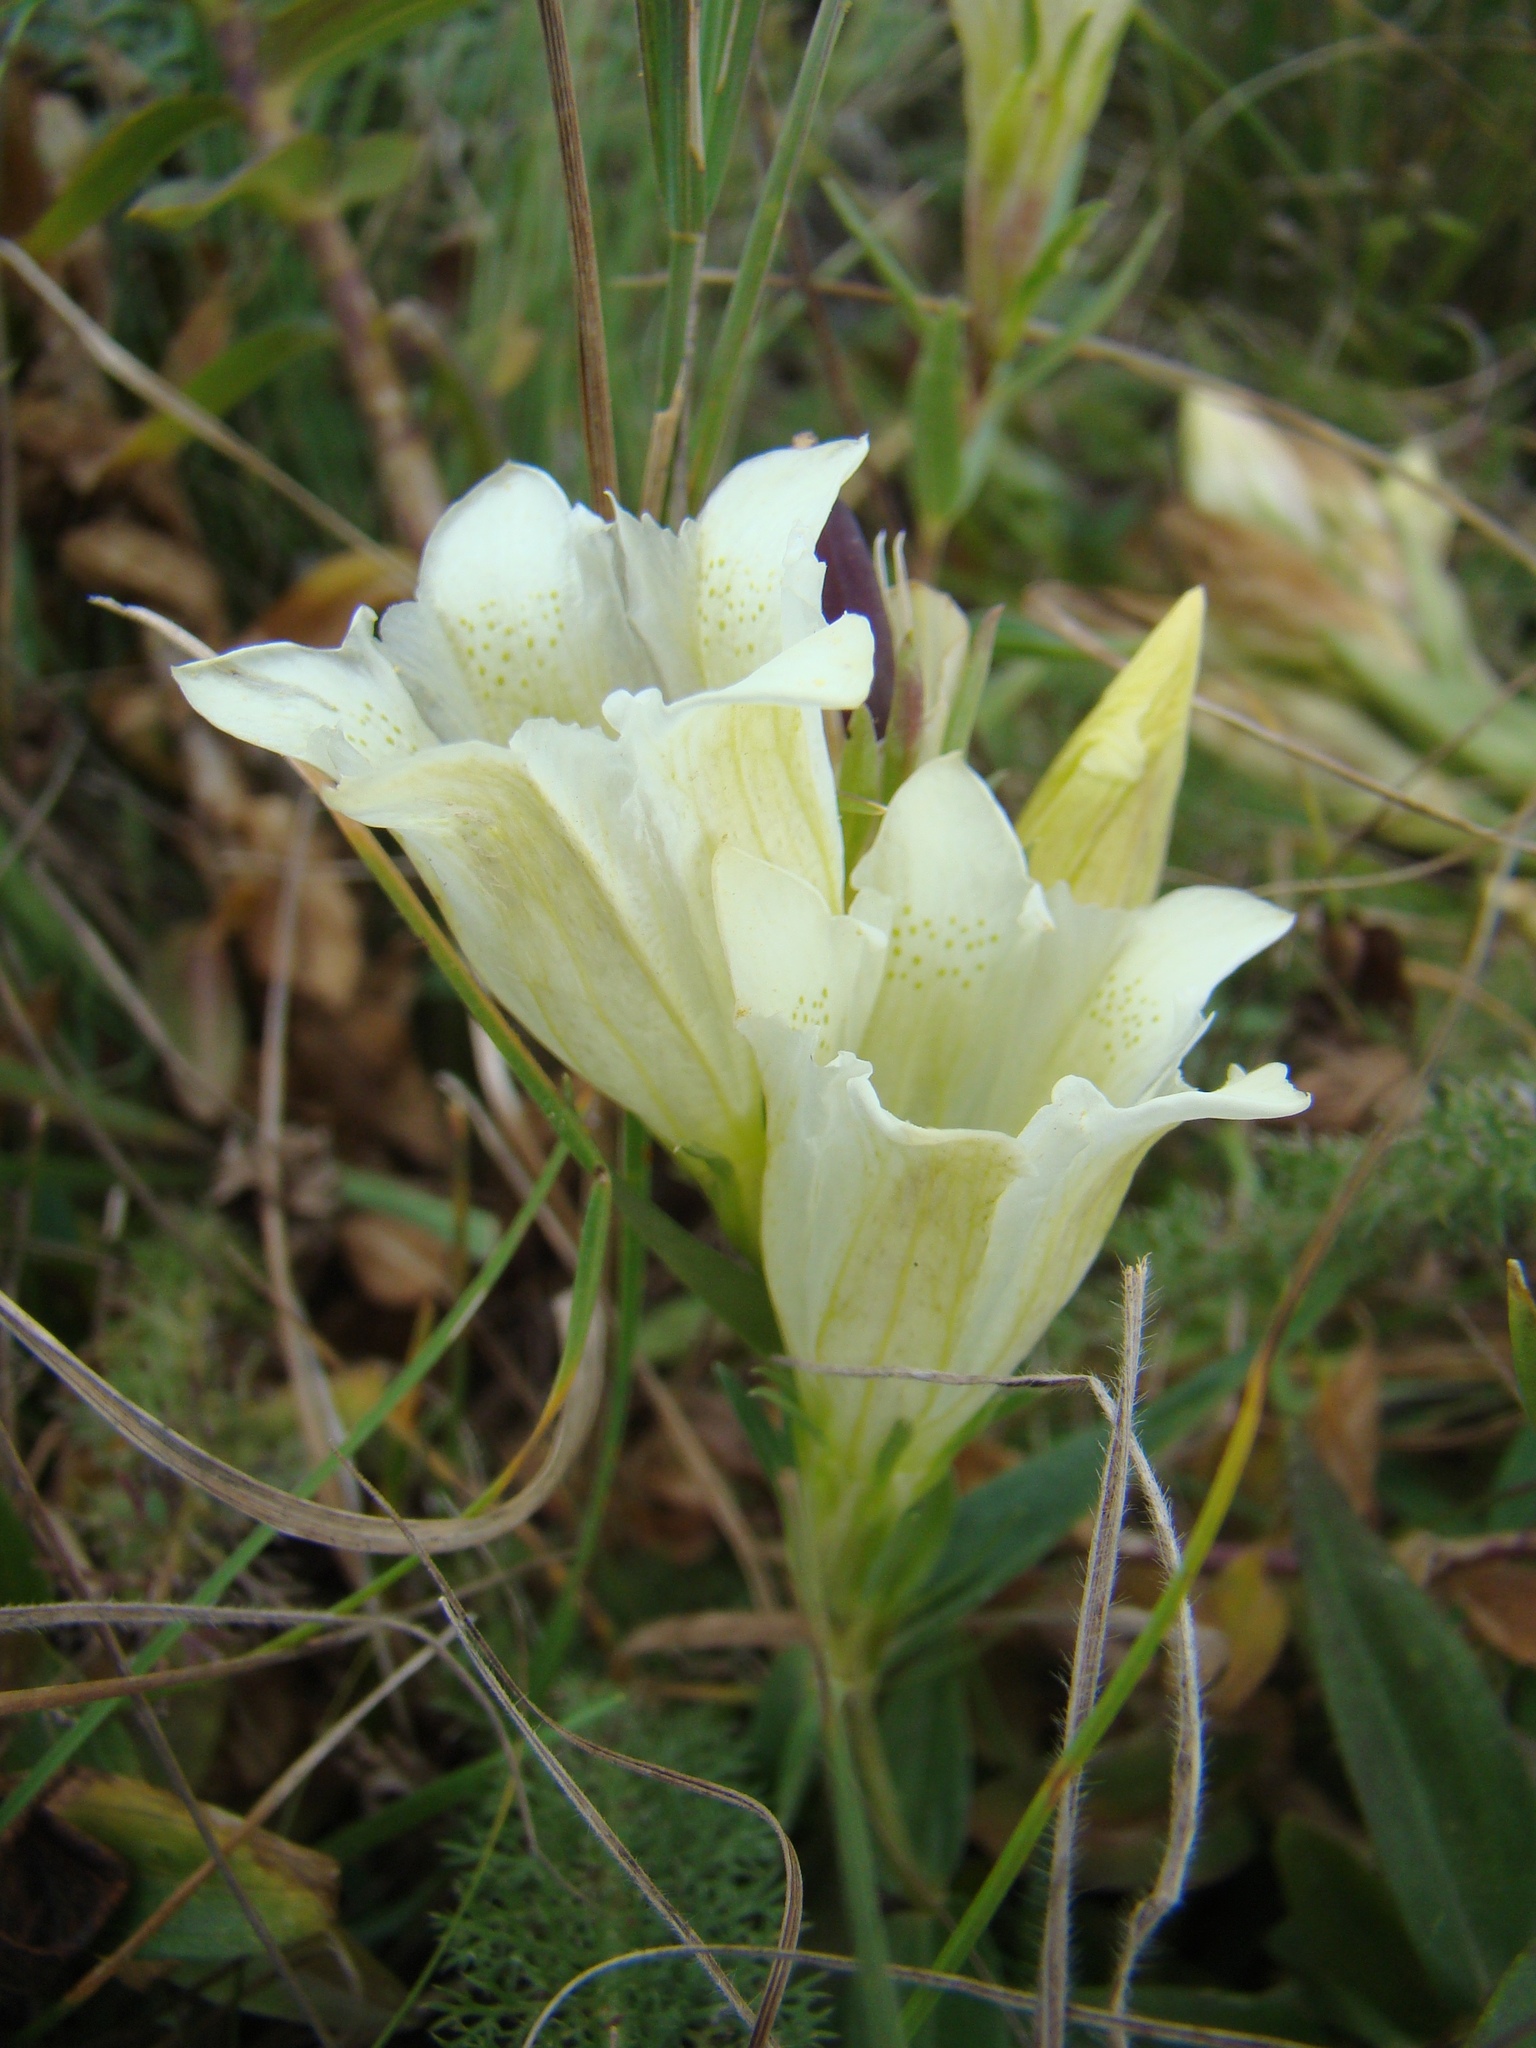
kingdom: Plantae
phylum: Tracheophyta
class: Magnoliopsida
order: Gentianales
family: Gentianaceae
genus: Gentiana
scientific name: Gentiana gelida
